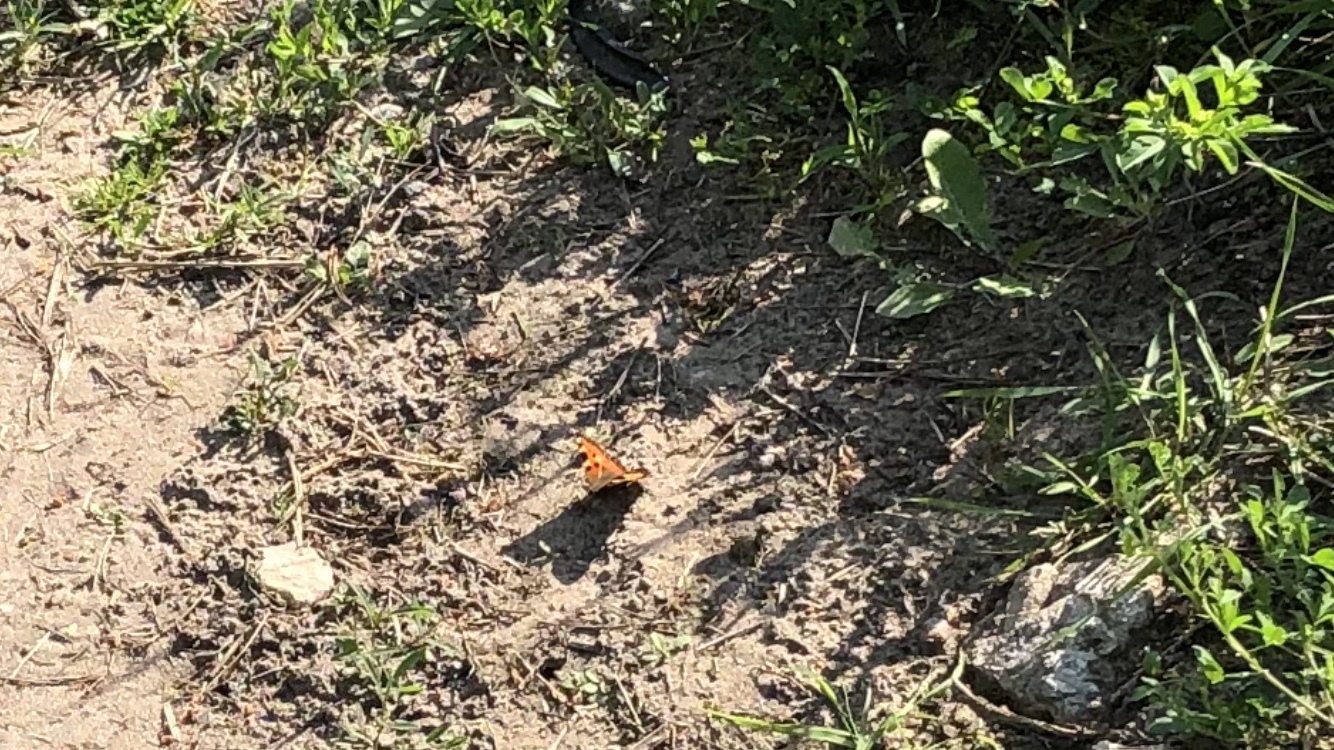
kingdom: Animalia
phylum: Arthropoda
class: Insecta
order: Lepidoptera
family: Nymphalidae
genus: Aglais
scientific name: Aglais urticae
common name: Small tortoiseshell
